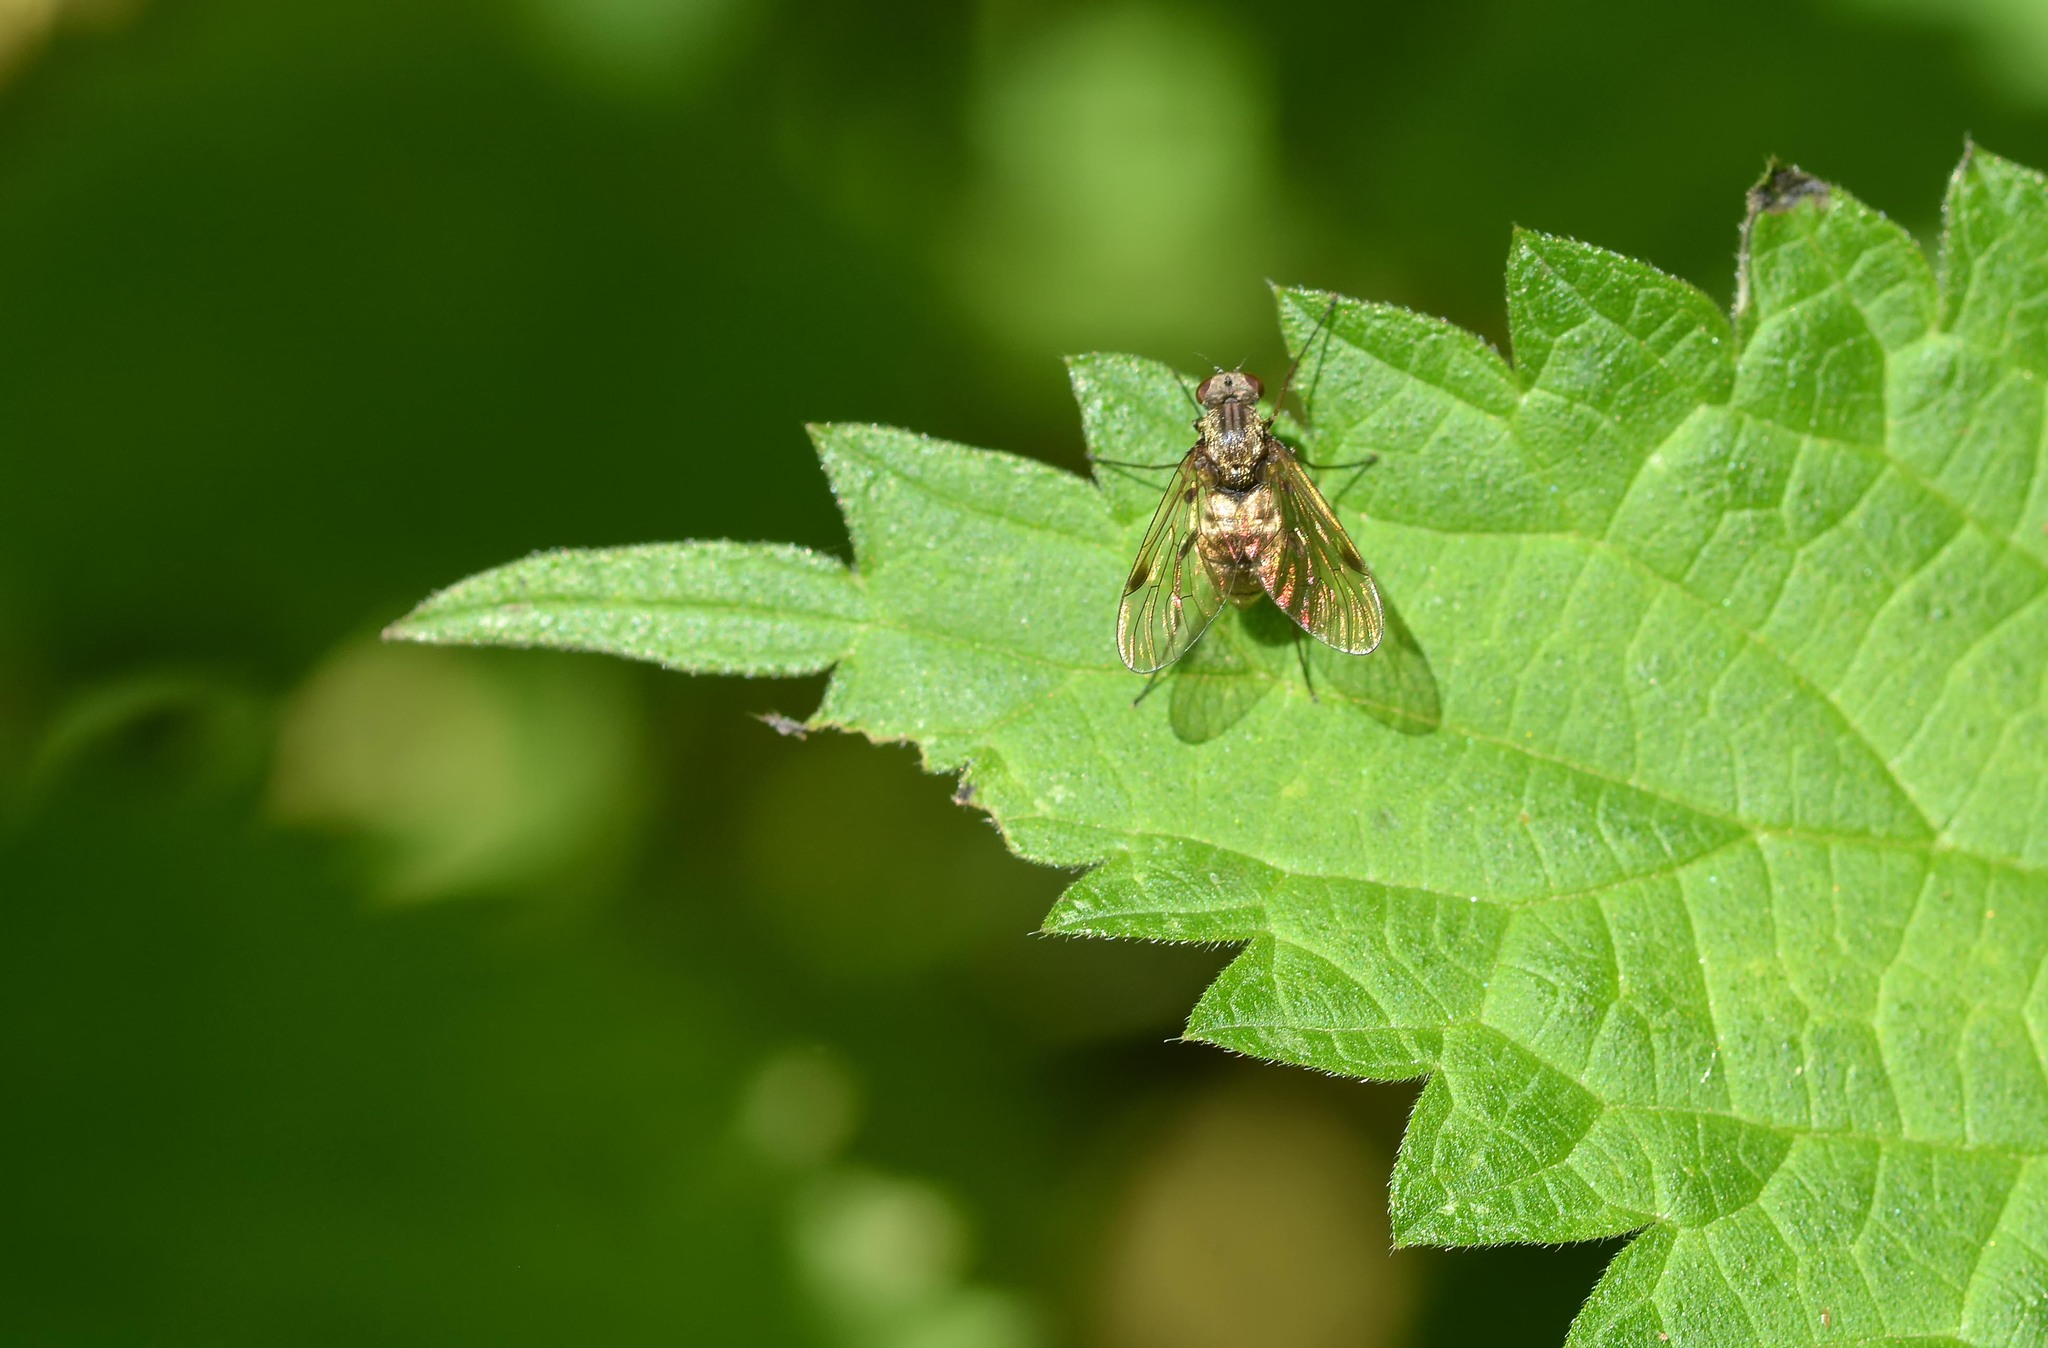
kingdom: Animalia
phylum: Arthropoda
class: Insecta
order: Diptera
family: Rhagionidae
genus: Chrysopilus
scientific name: Chrysopilus cristatus
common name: Black snipefly
